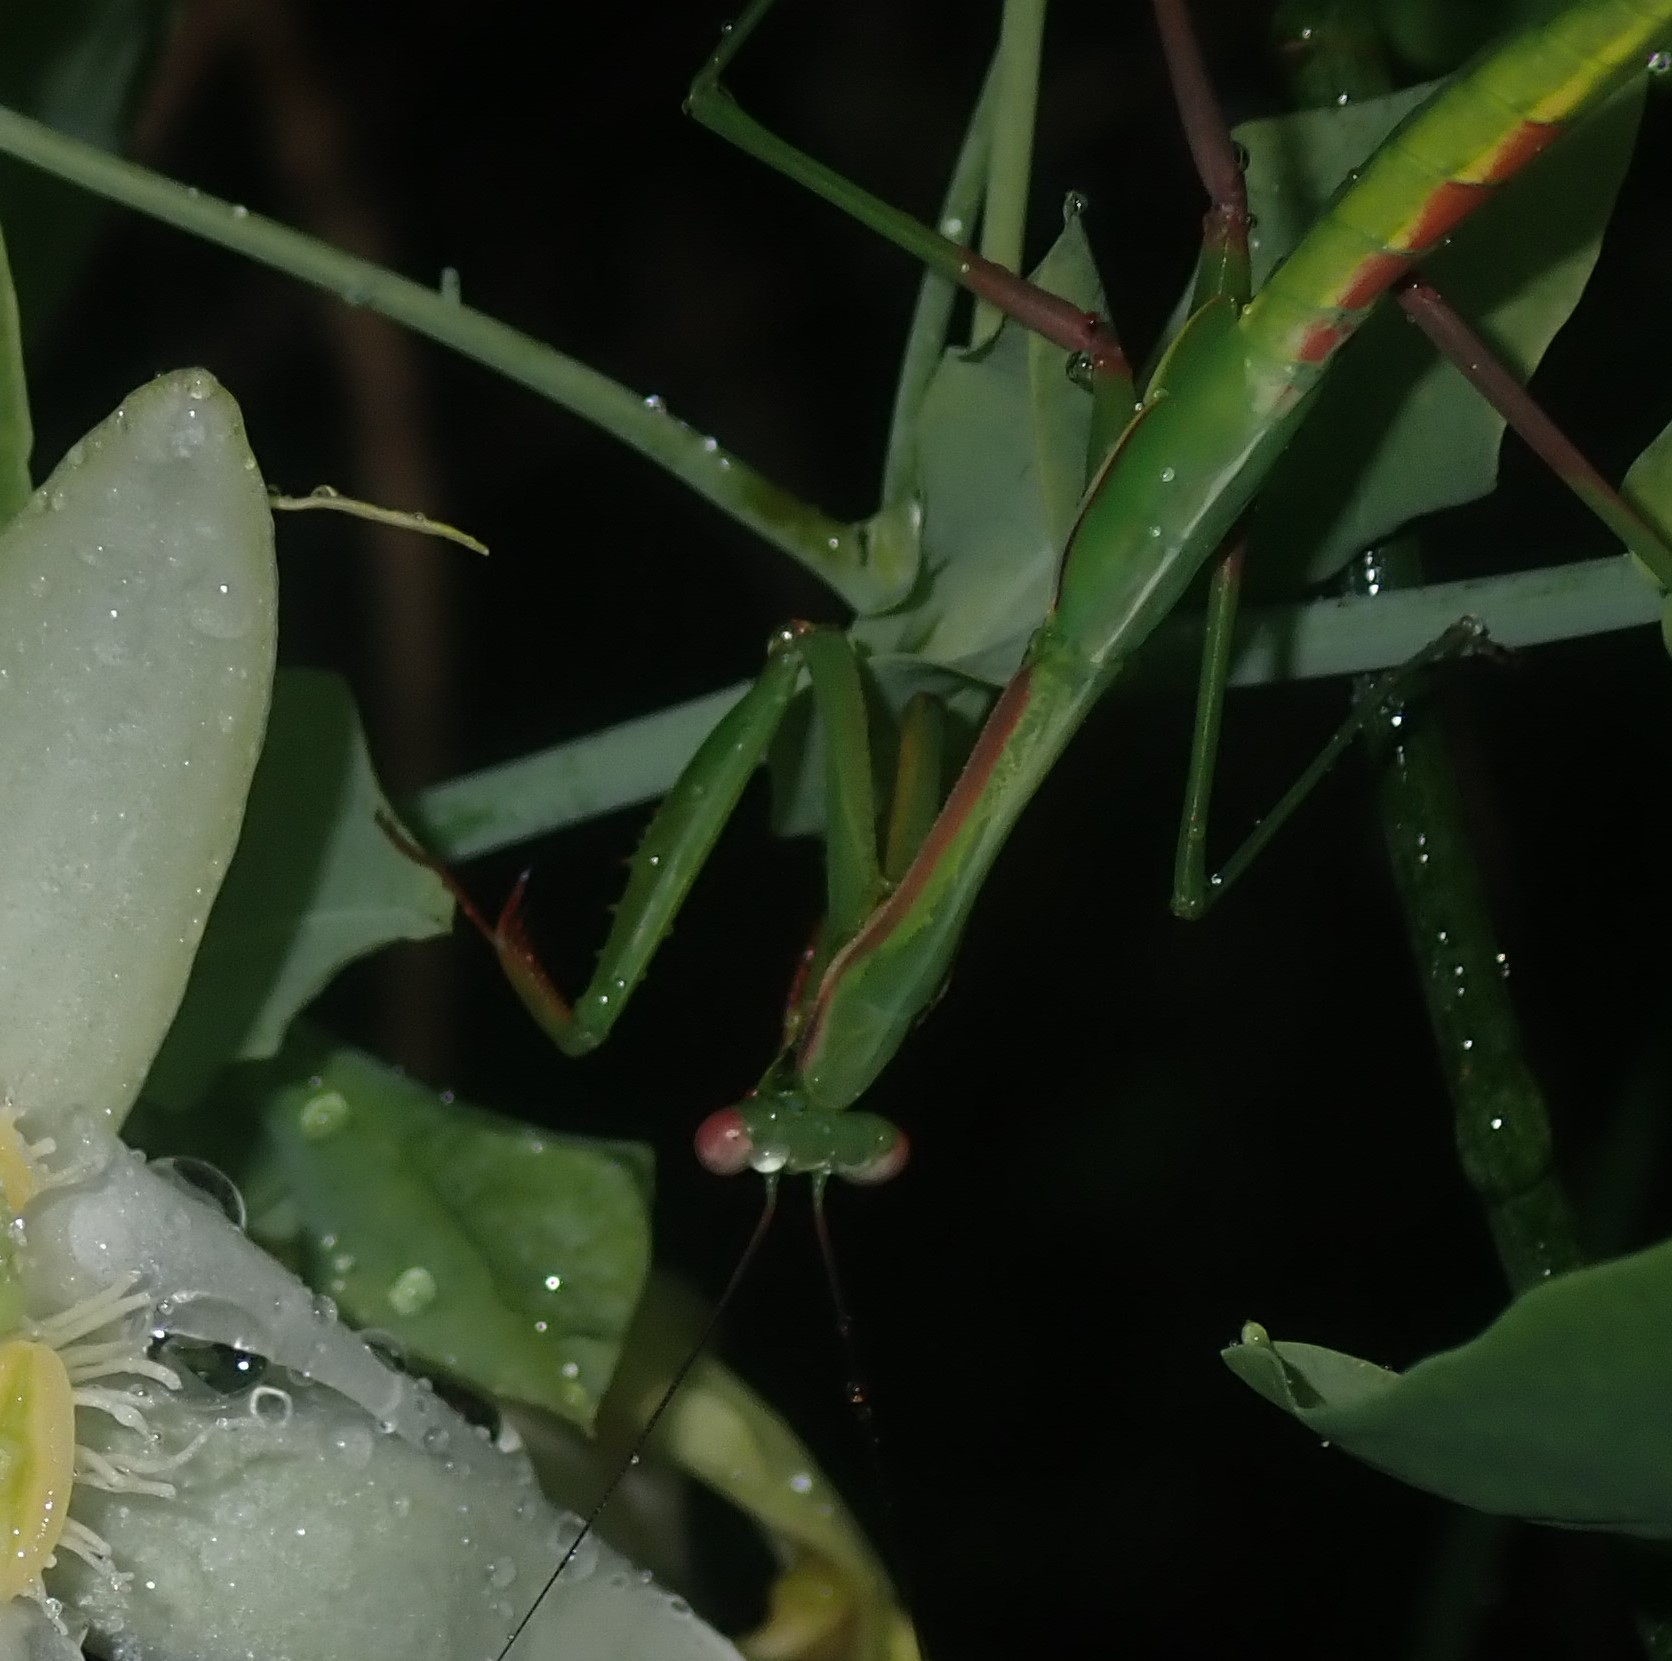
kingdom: Animalia
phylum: Arthropoda
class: Insecta
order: Mantodea
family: Mantidae
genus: Pseudomantis
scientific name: Pseudomantis albofimbriata
